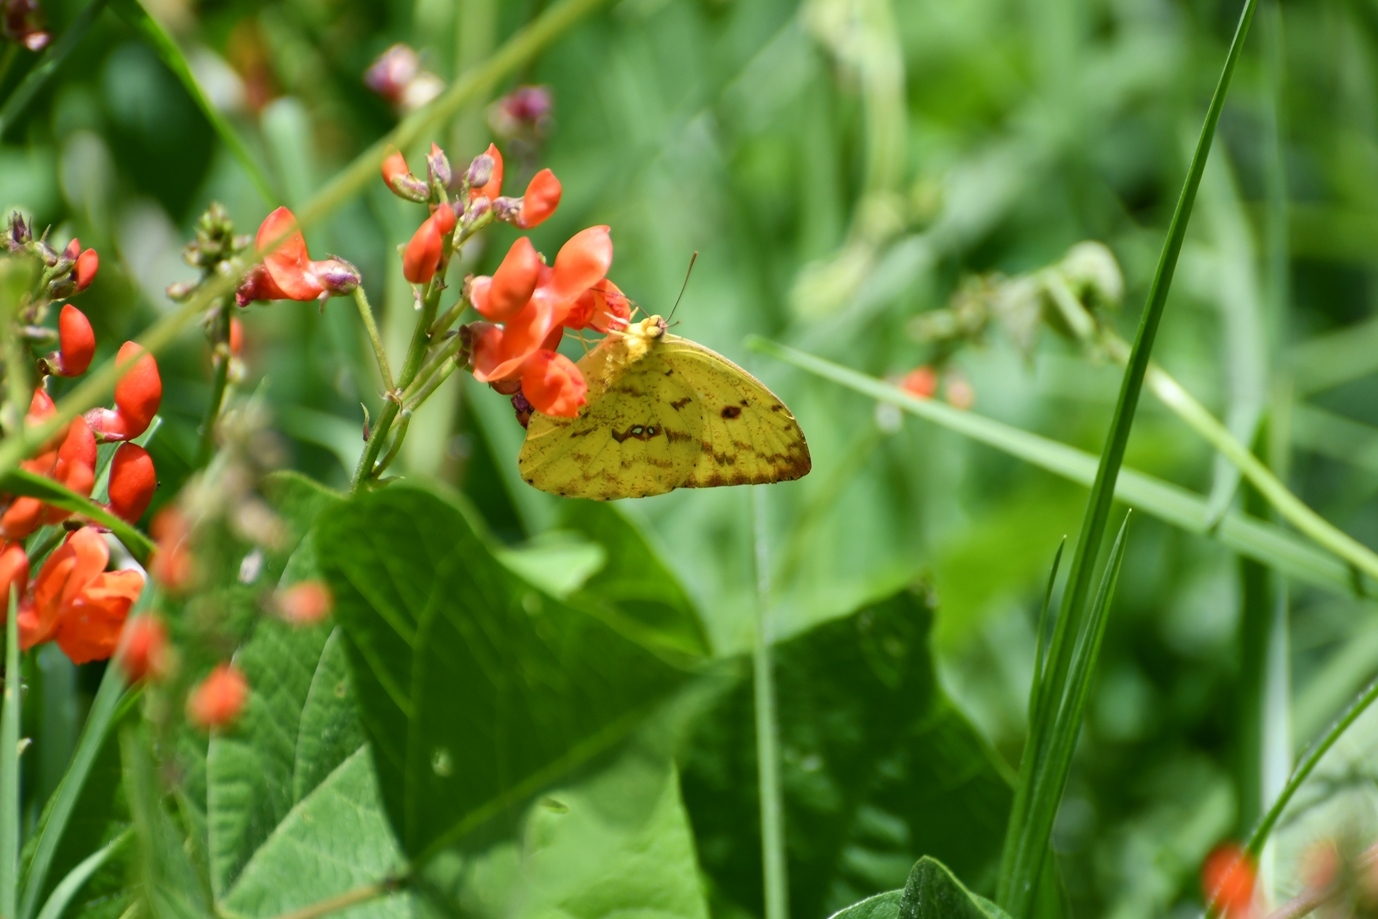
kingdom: Animalia
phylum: Arthropoda
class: Insecta
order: Lepidoptera
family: Pieridae
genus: Phoebis
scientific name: Phoebis argante
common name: Apricot sulphur
